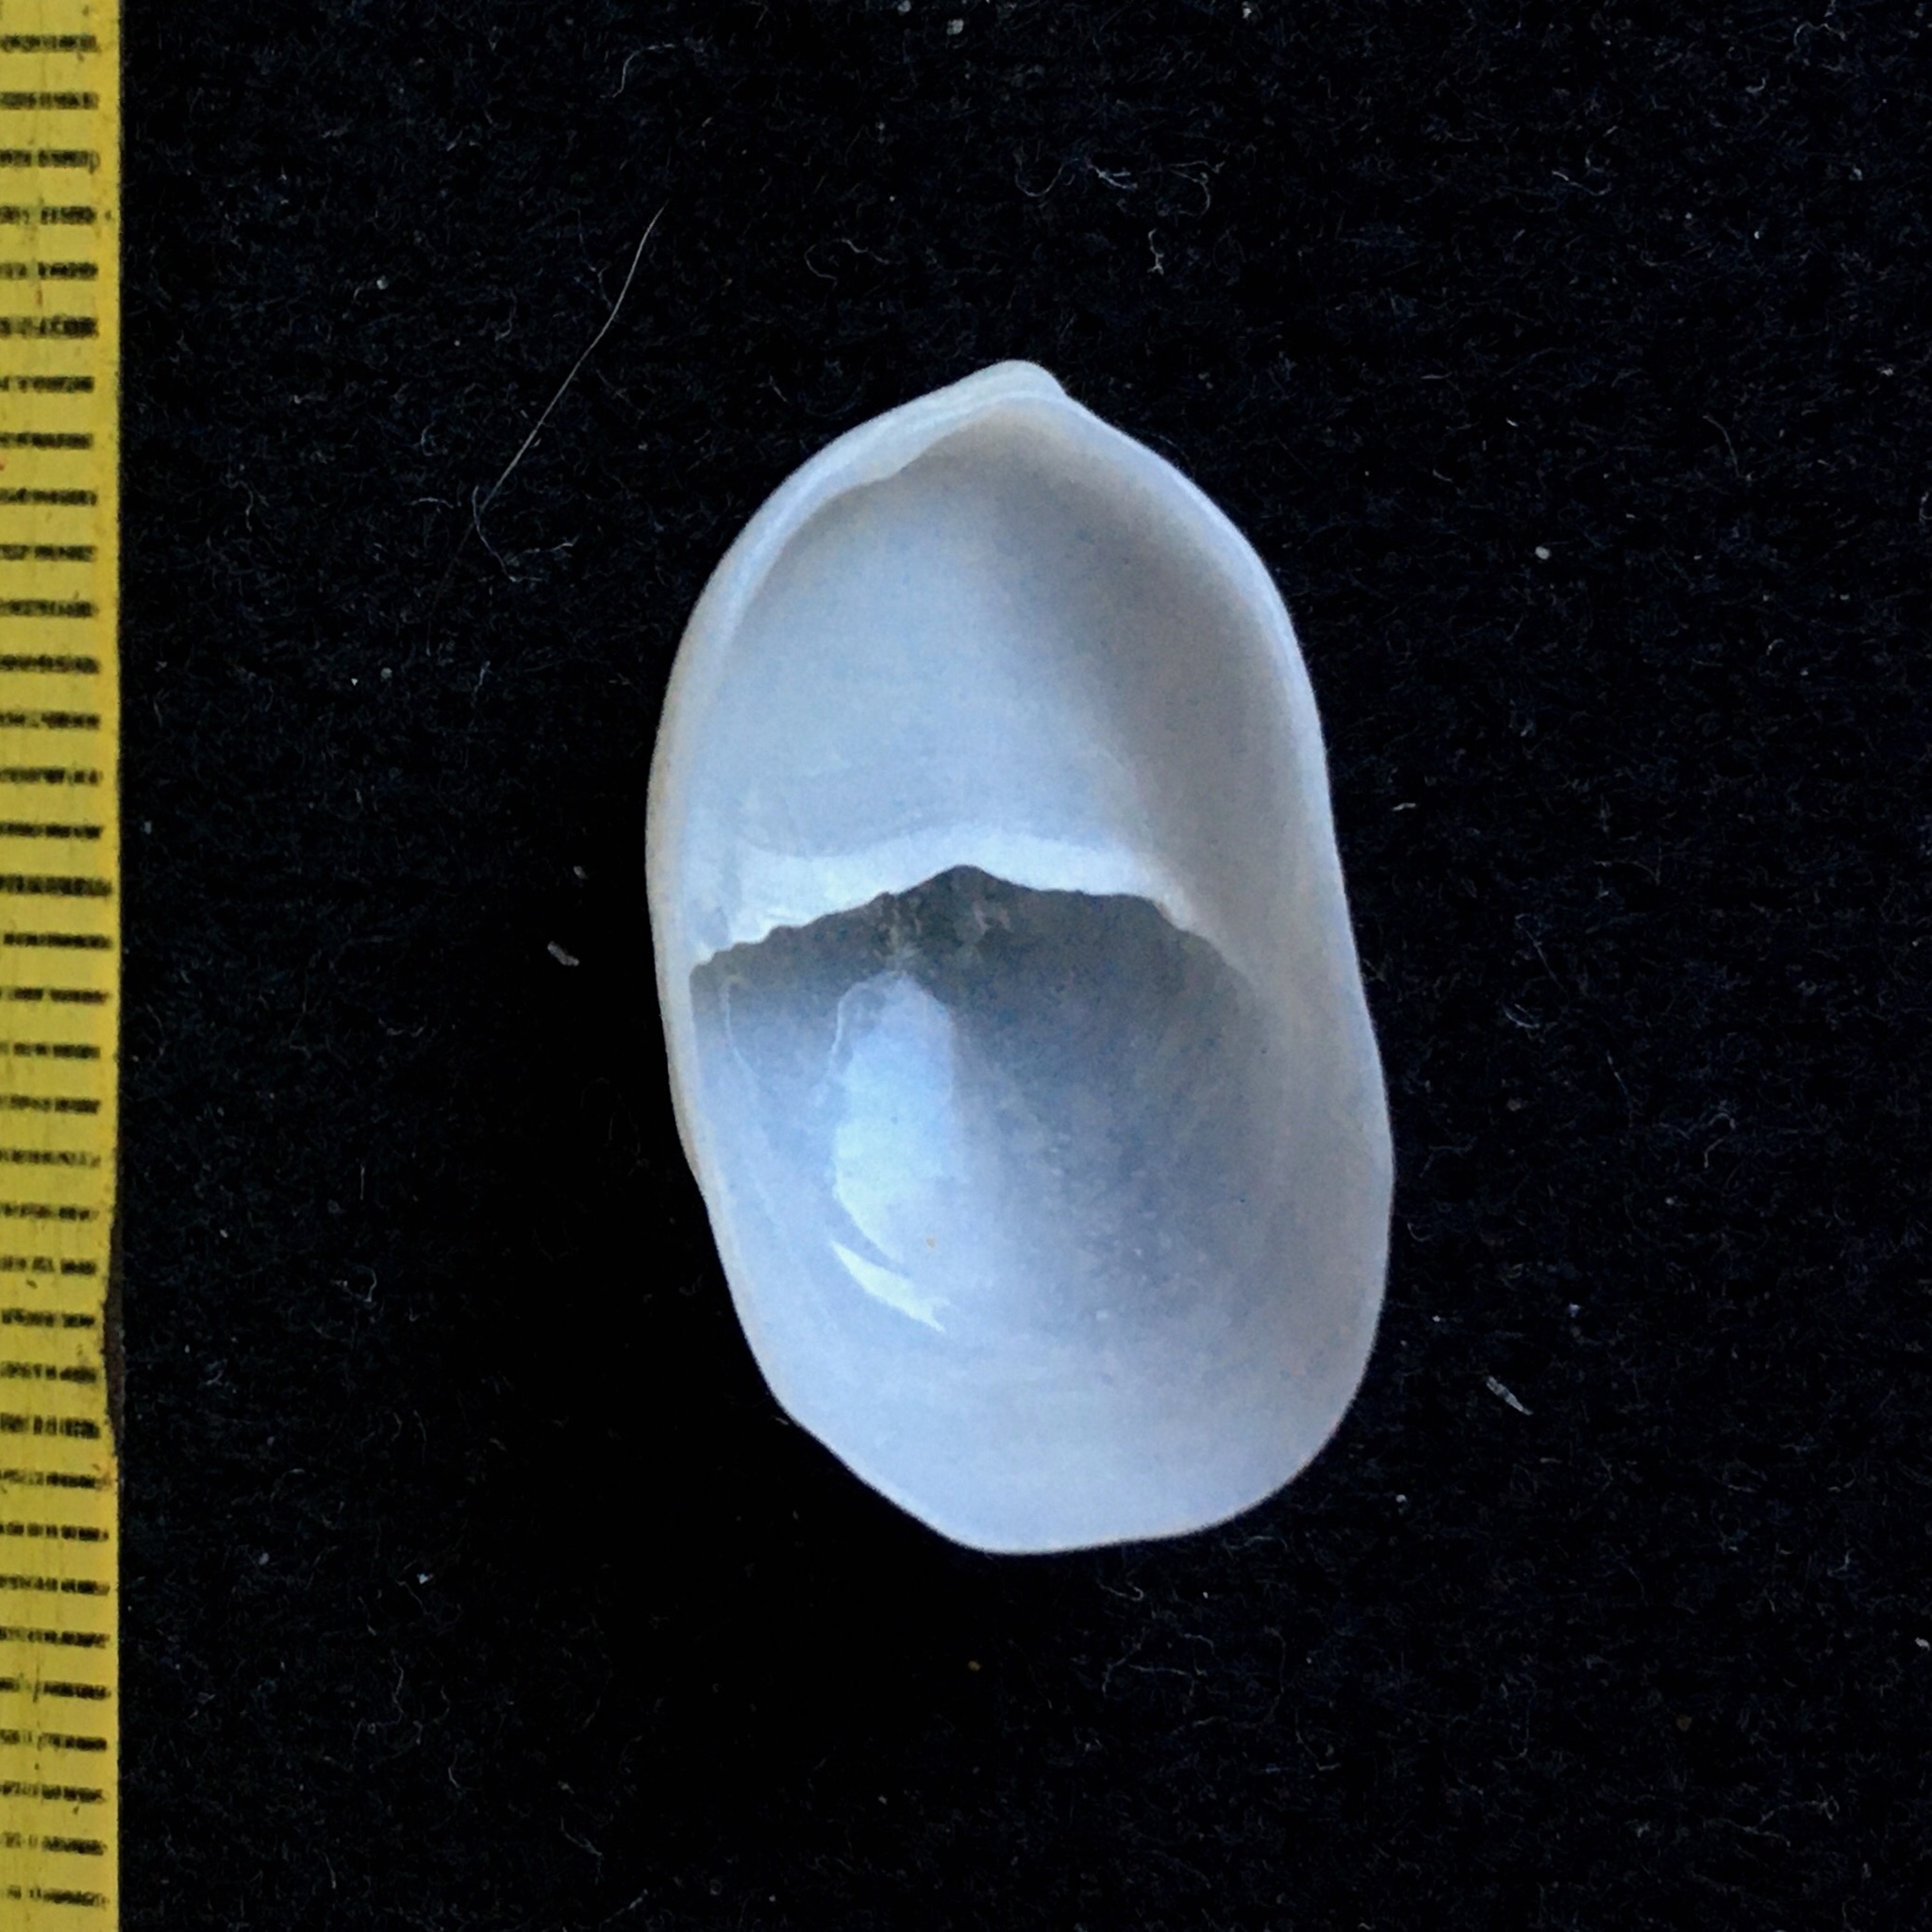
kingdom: Animalia
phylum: Mollusca
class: Gastropoda
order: Littorinimorpha
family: Calyptraeidae
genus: Crepidula
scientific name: Crepidula argentina
